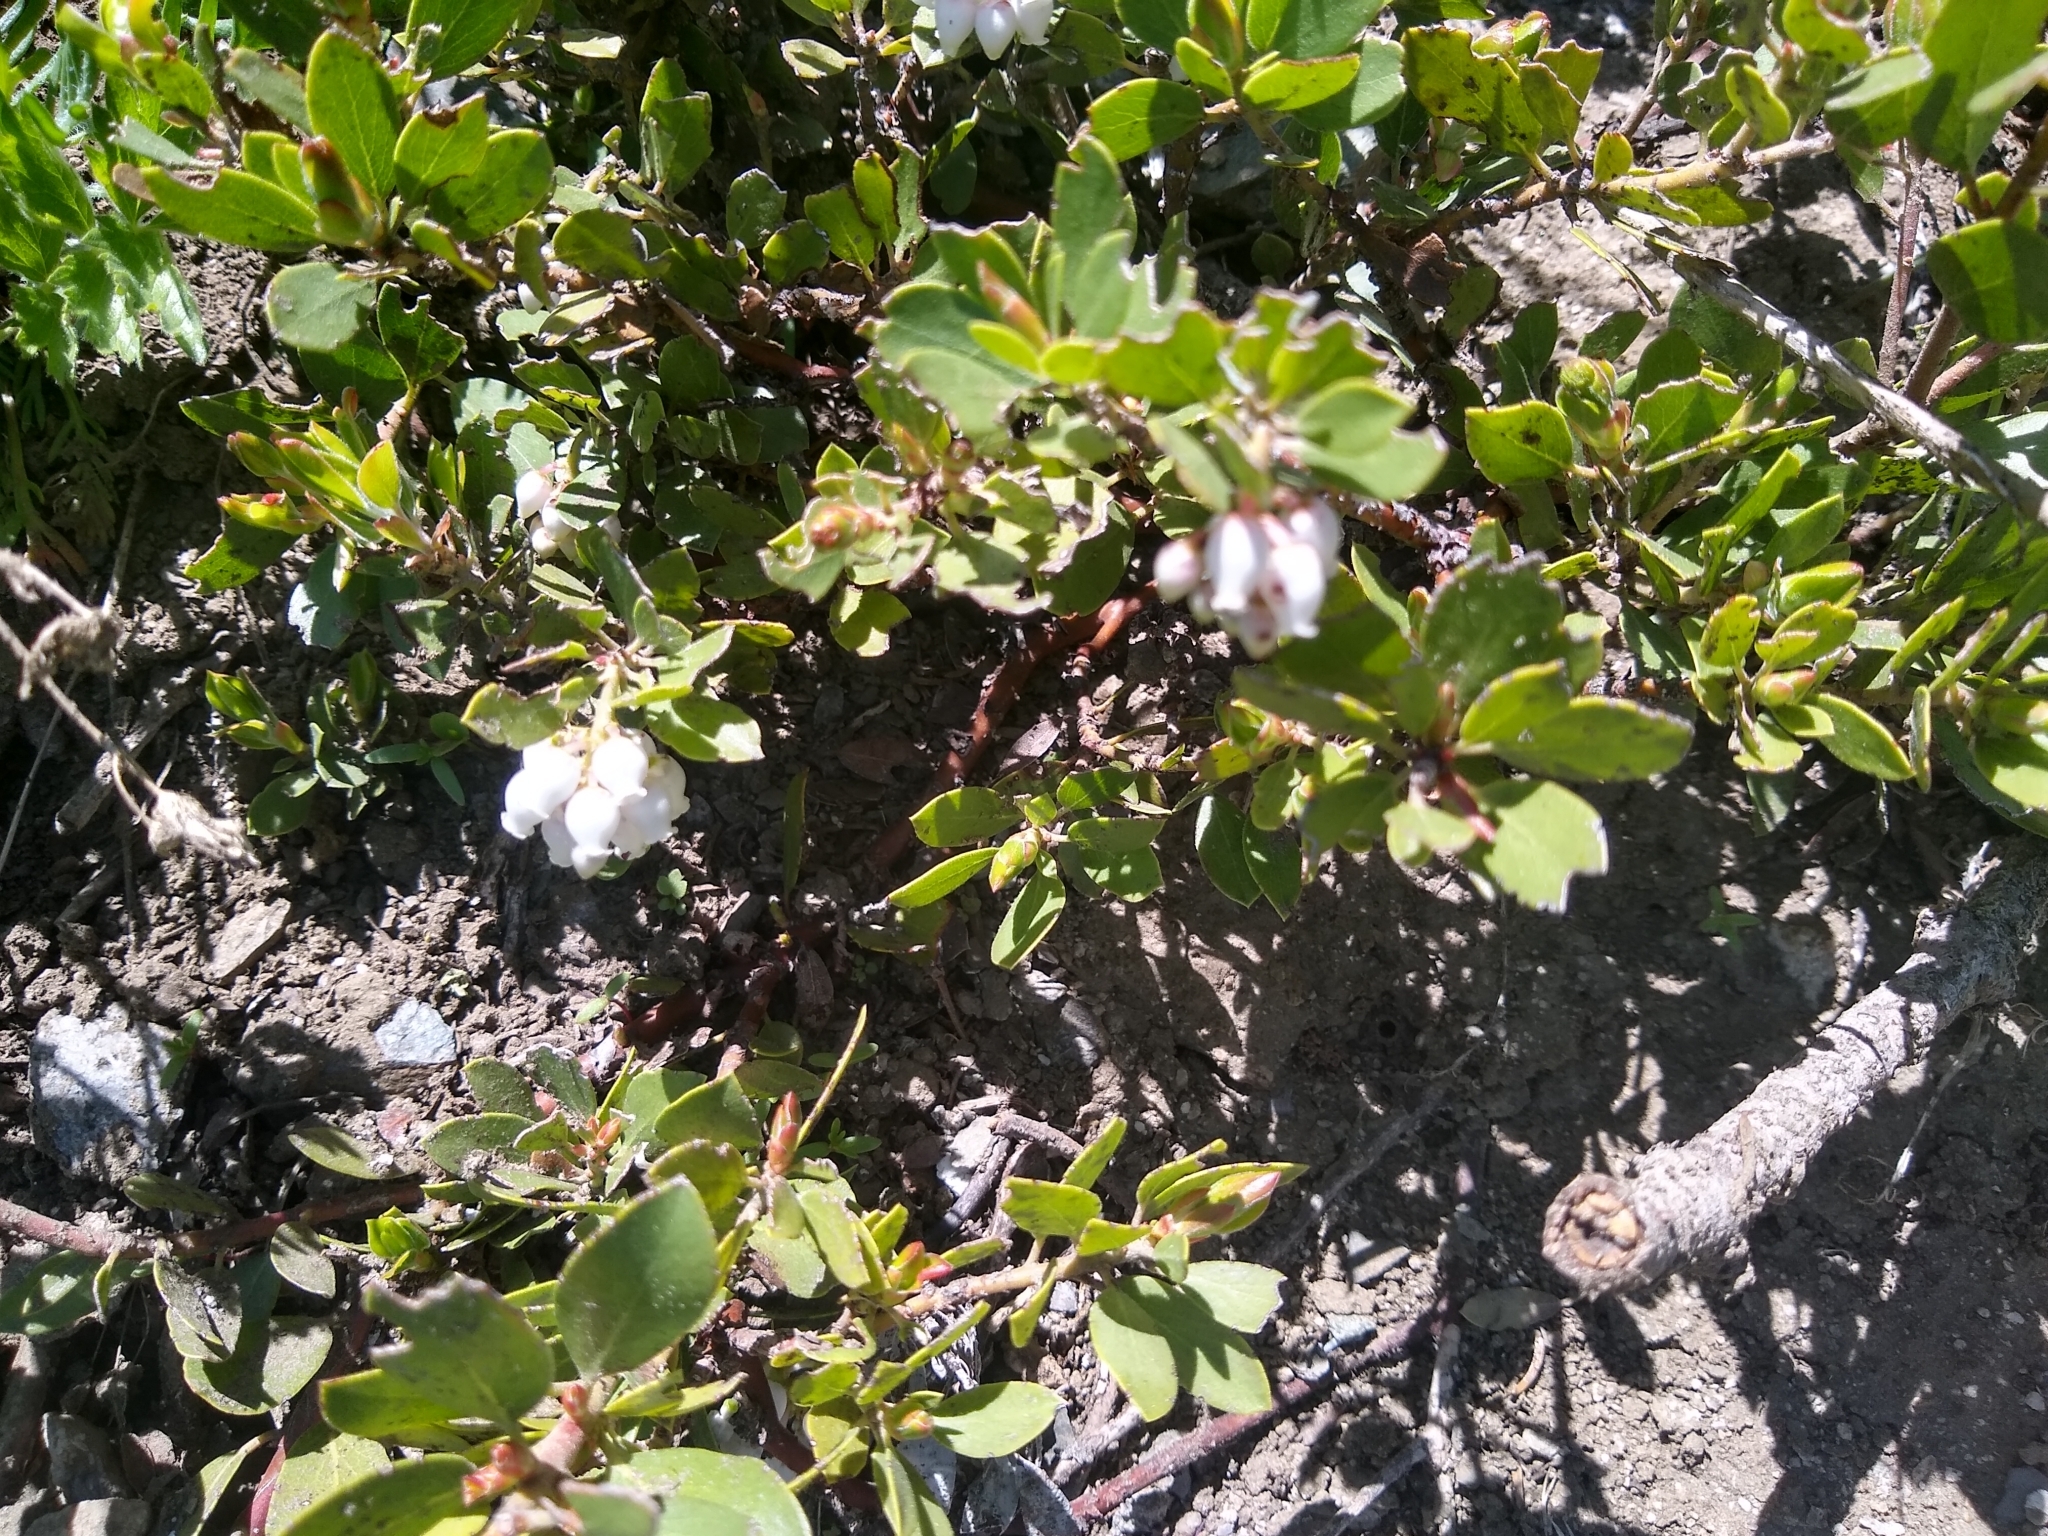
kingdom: Plantae
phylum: Tracheophyta
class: Magnoliopsida
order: Ericales
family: Ericaceae
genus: Arctostaphylos
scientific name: Arctostaphylos nevadensis
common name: Pinemat manzanita
